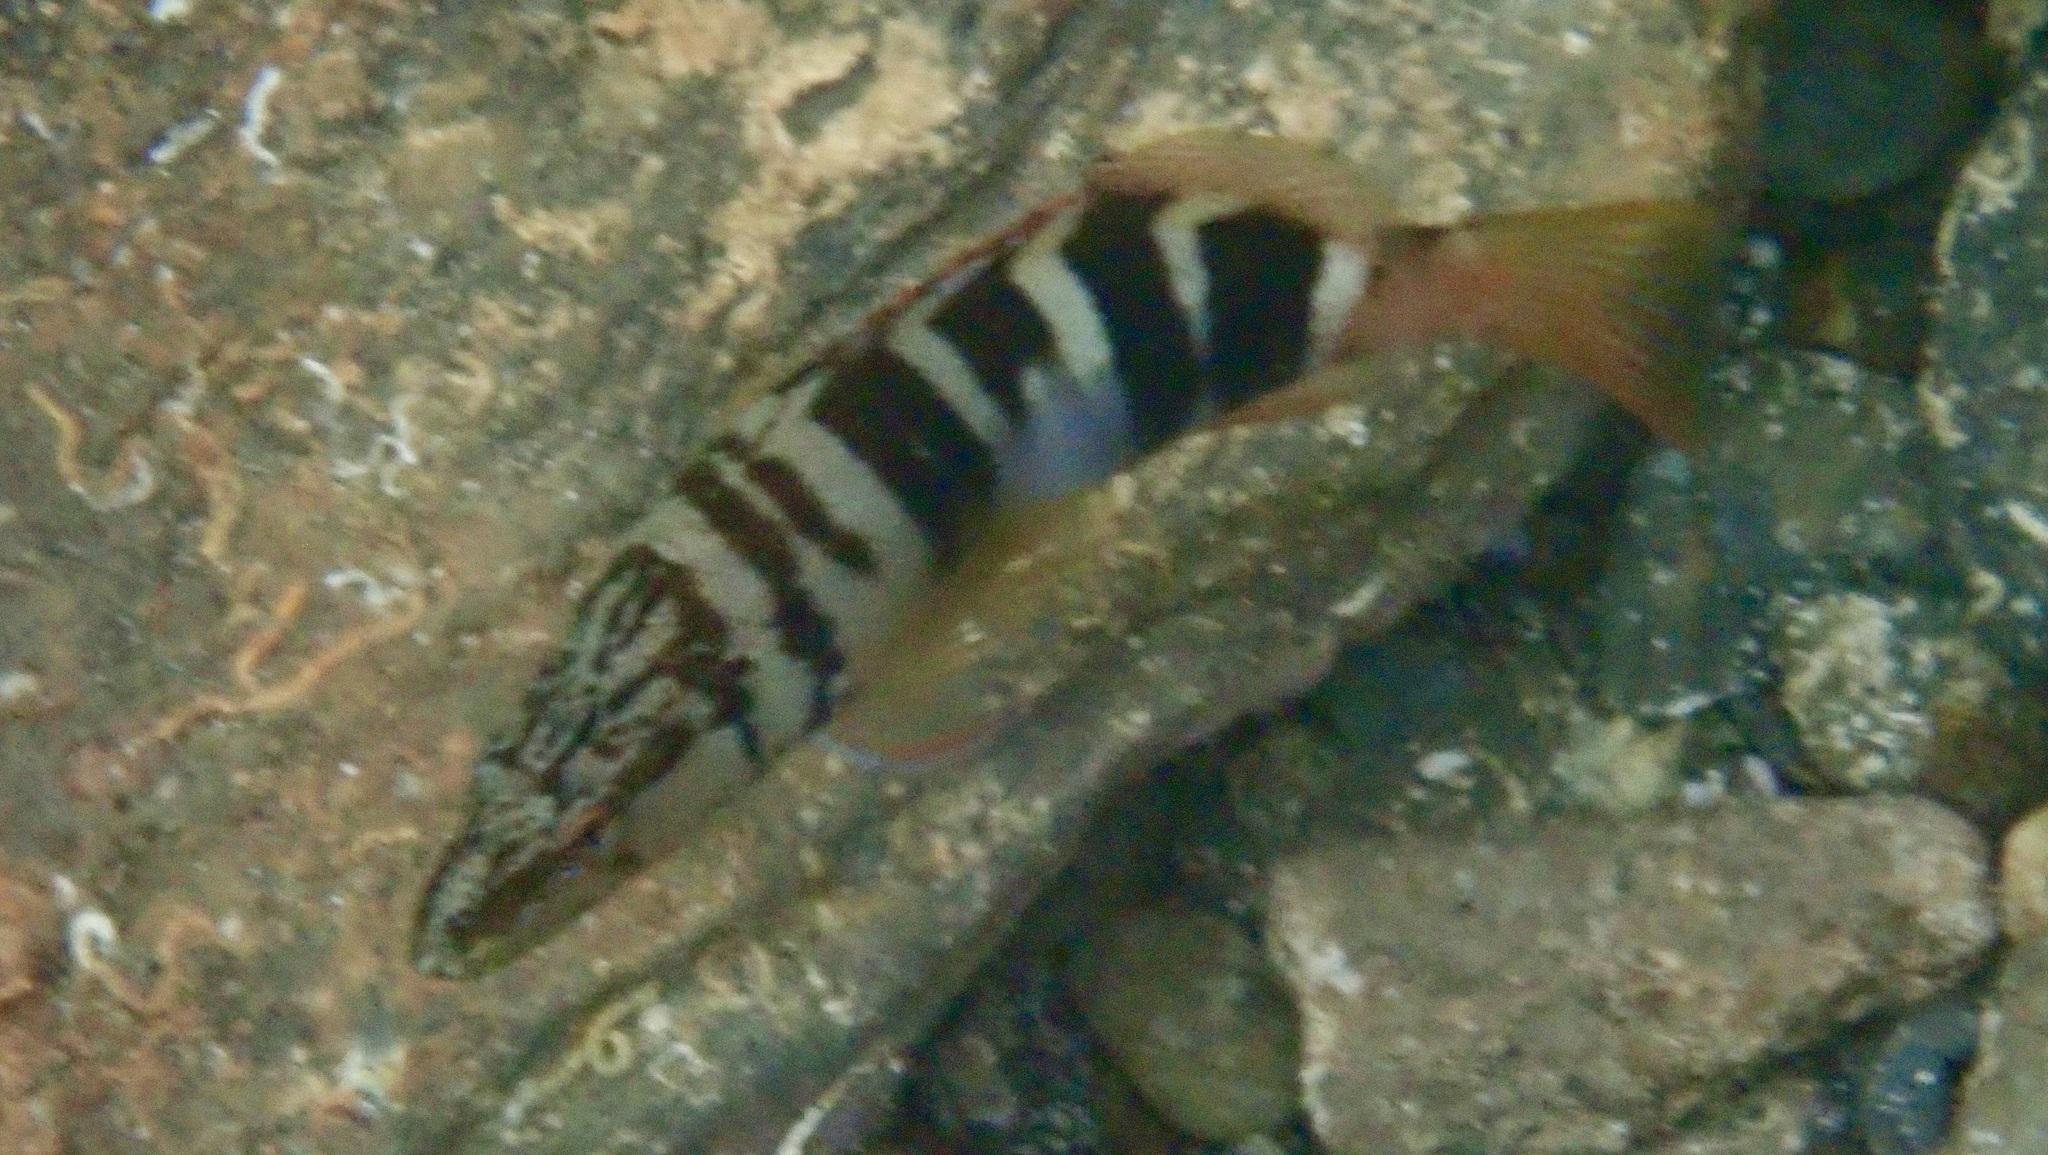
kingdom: Animalia
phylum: Chordata
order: Perciformes
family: Serranidae
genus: Serranus
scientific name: Serranus scriba
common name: Painted comber
